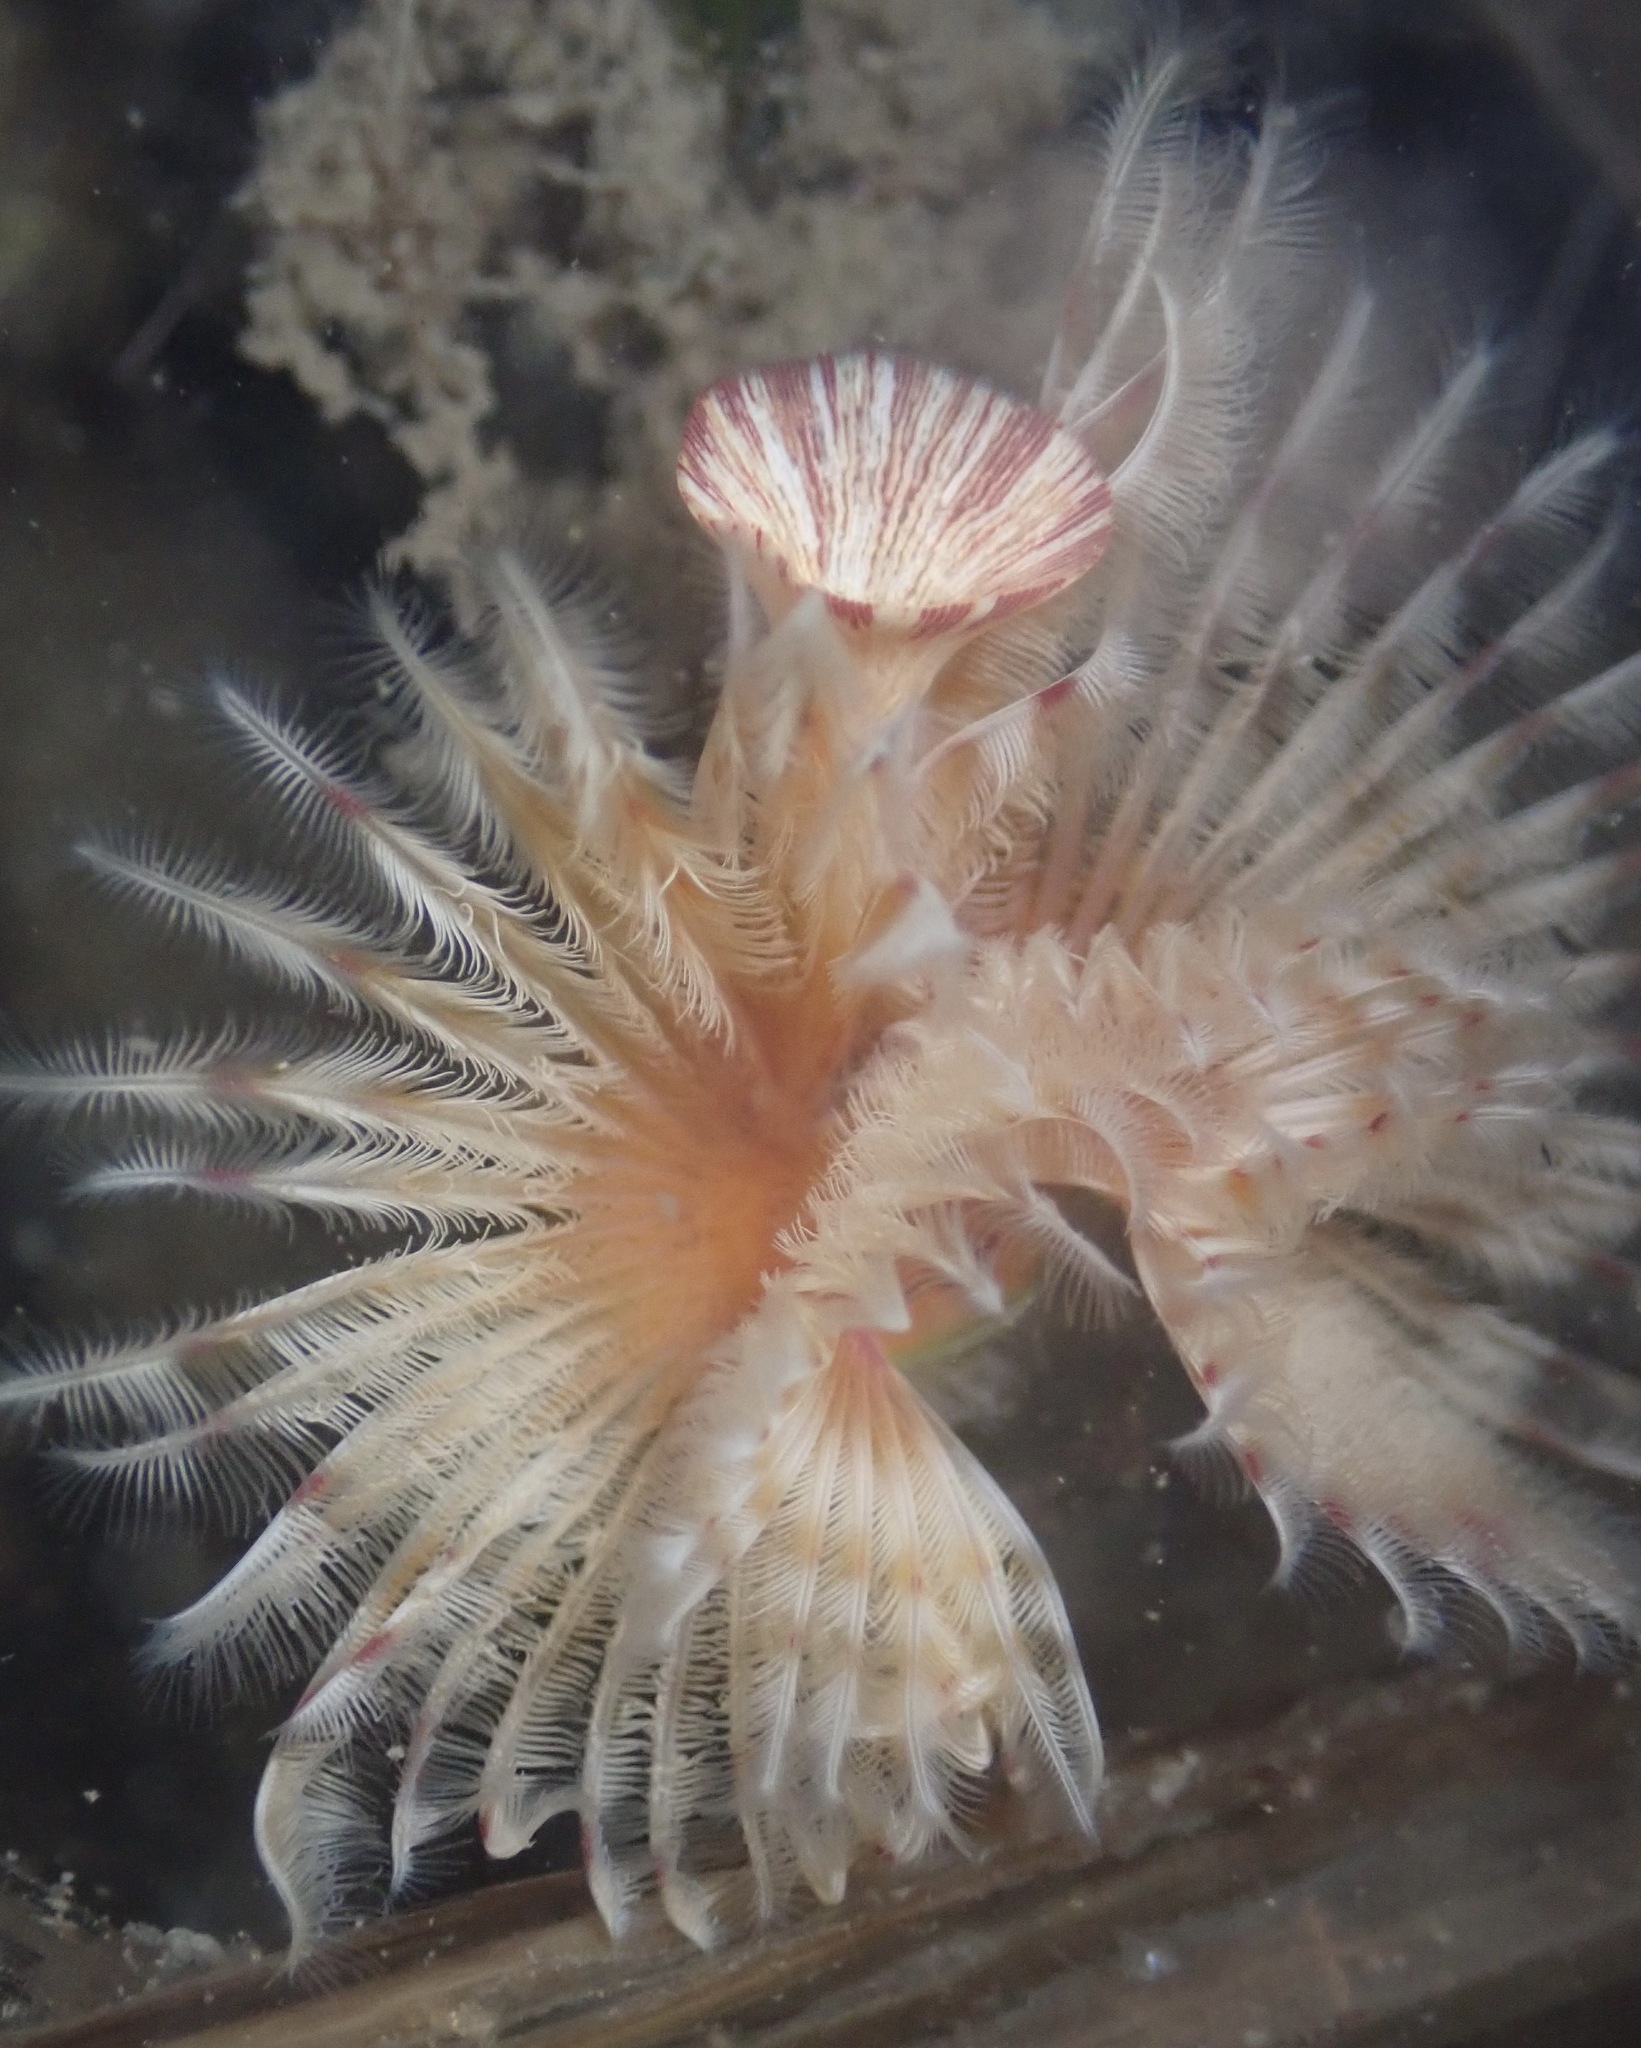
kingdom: Animalia
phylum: Annelida
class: Polychaeta
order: Sabellida
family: Serpulidae
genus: Serpula
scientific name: Serpula columbiana
